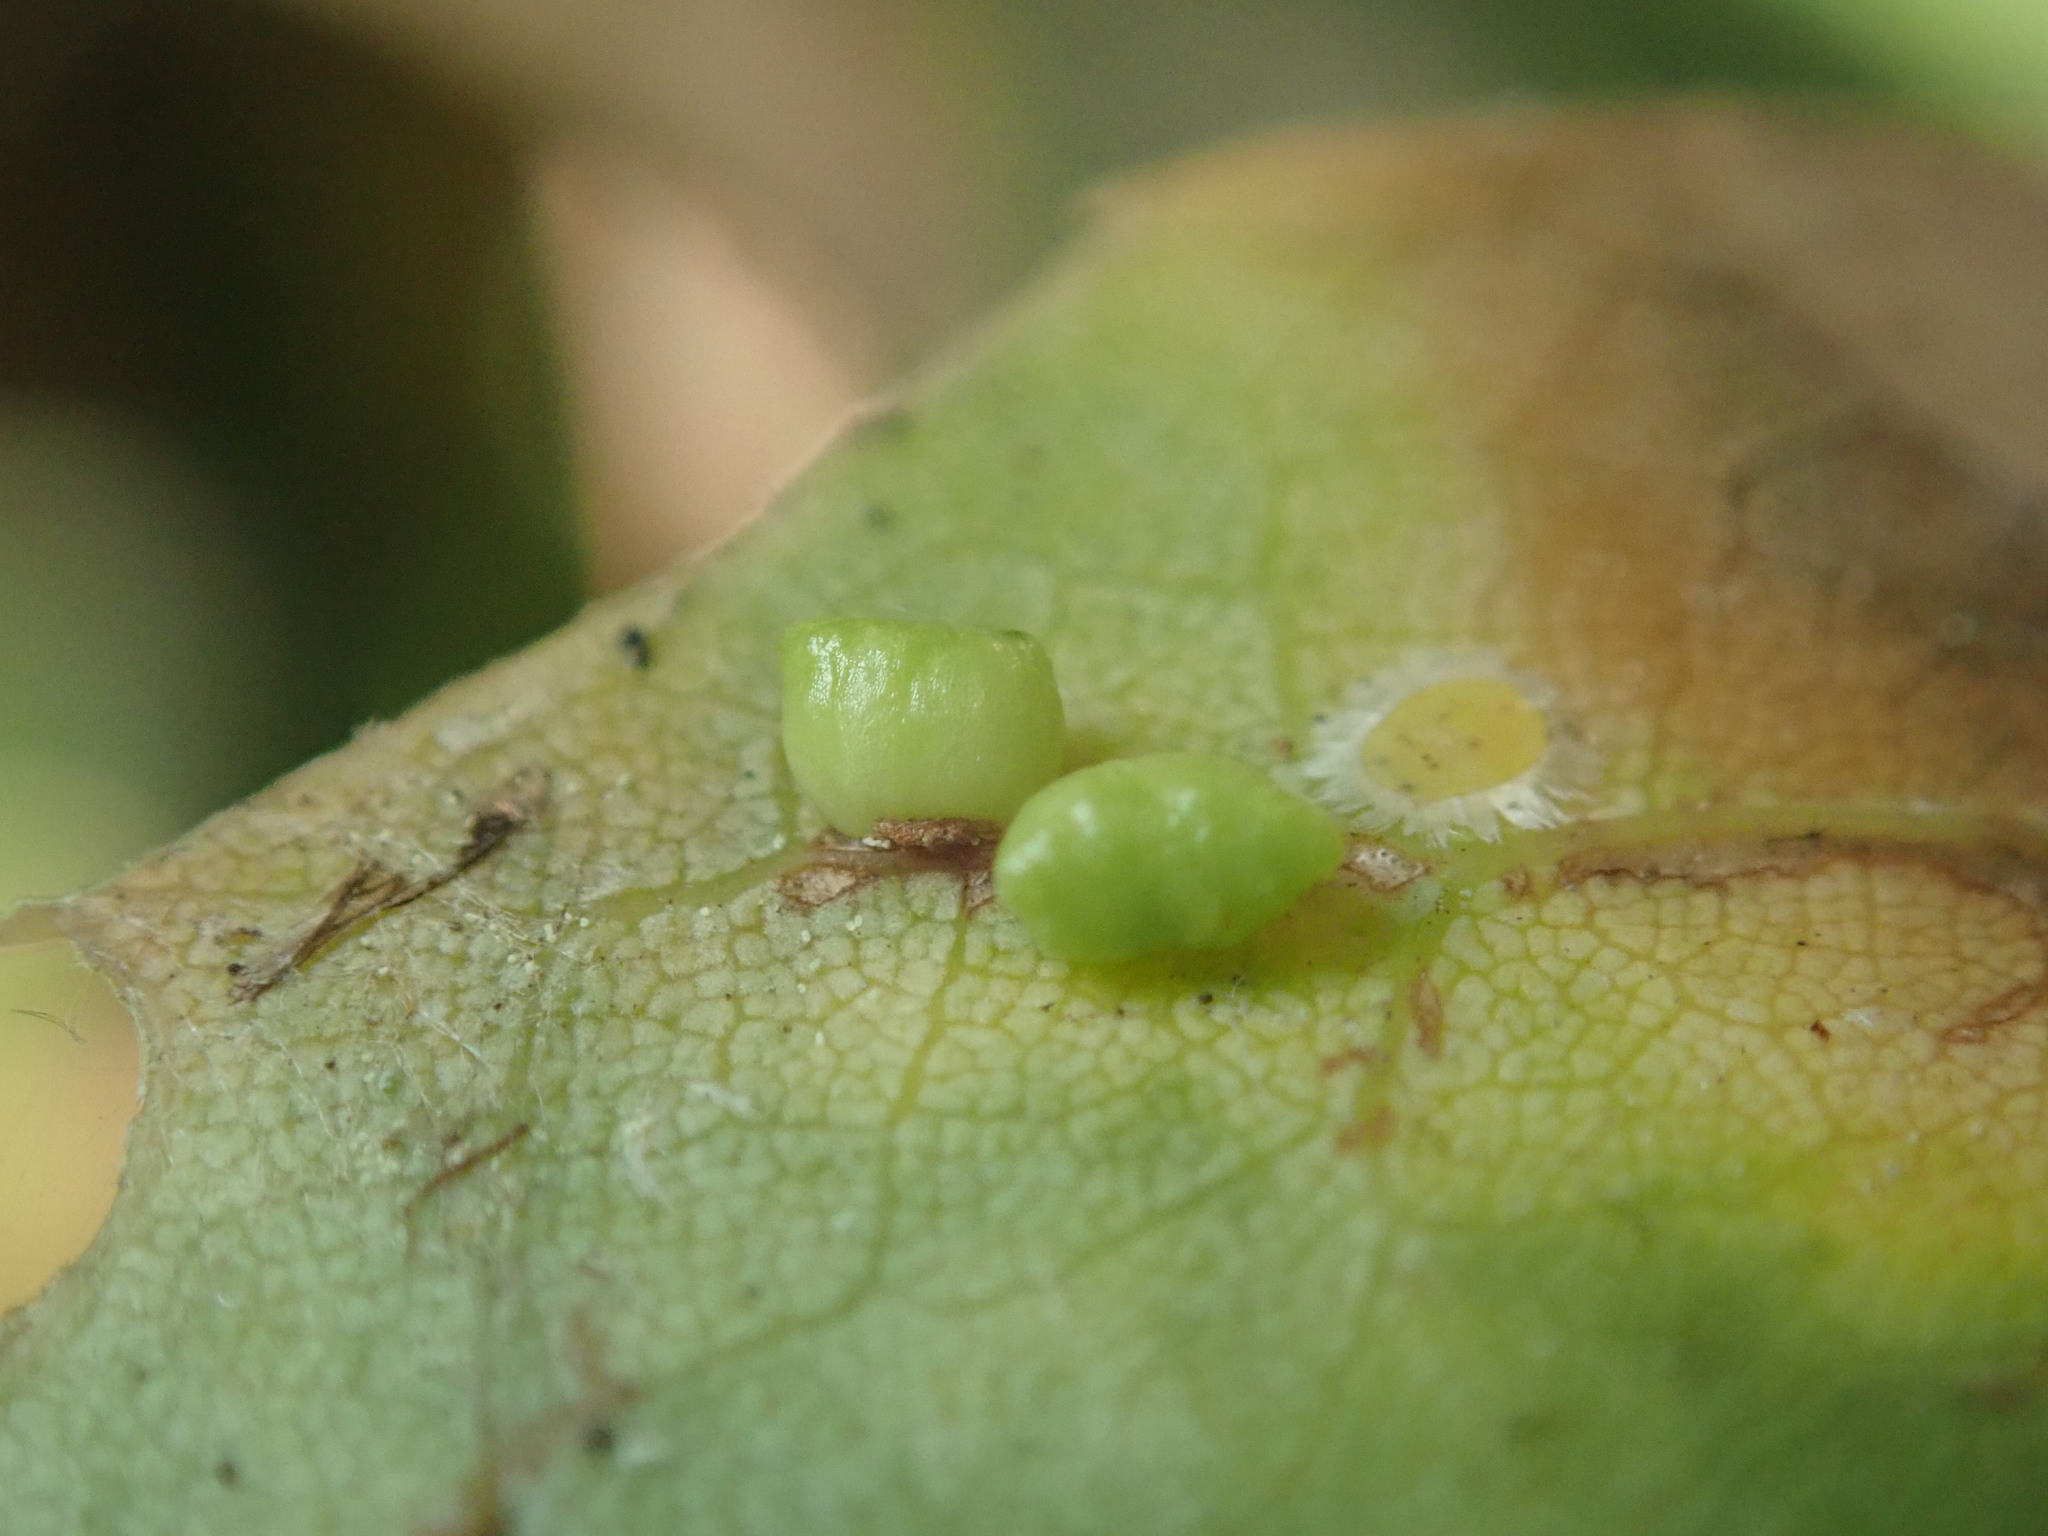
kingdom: Animalia
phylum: Arthropoda
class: Insecta
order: Hymenoptera
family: Cynipidae
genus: Dryocosmus
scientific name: Dryocosmus
